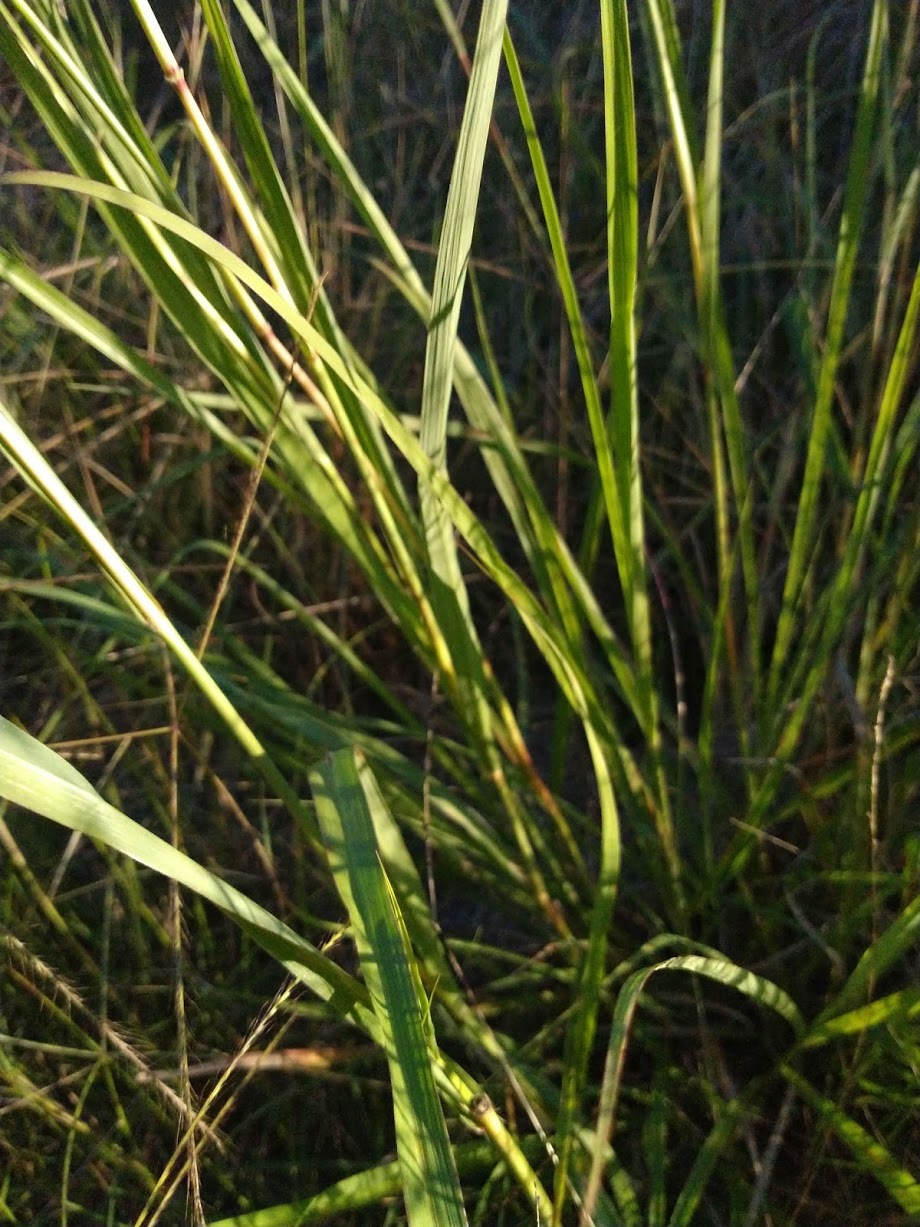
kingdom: Plantae
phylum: Tracheophyta
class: Liliopsida
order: Poales
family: Poaceae
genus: Bothriochloa
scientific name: Bothriochloa bladhii
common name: Caucasian bluestem
